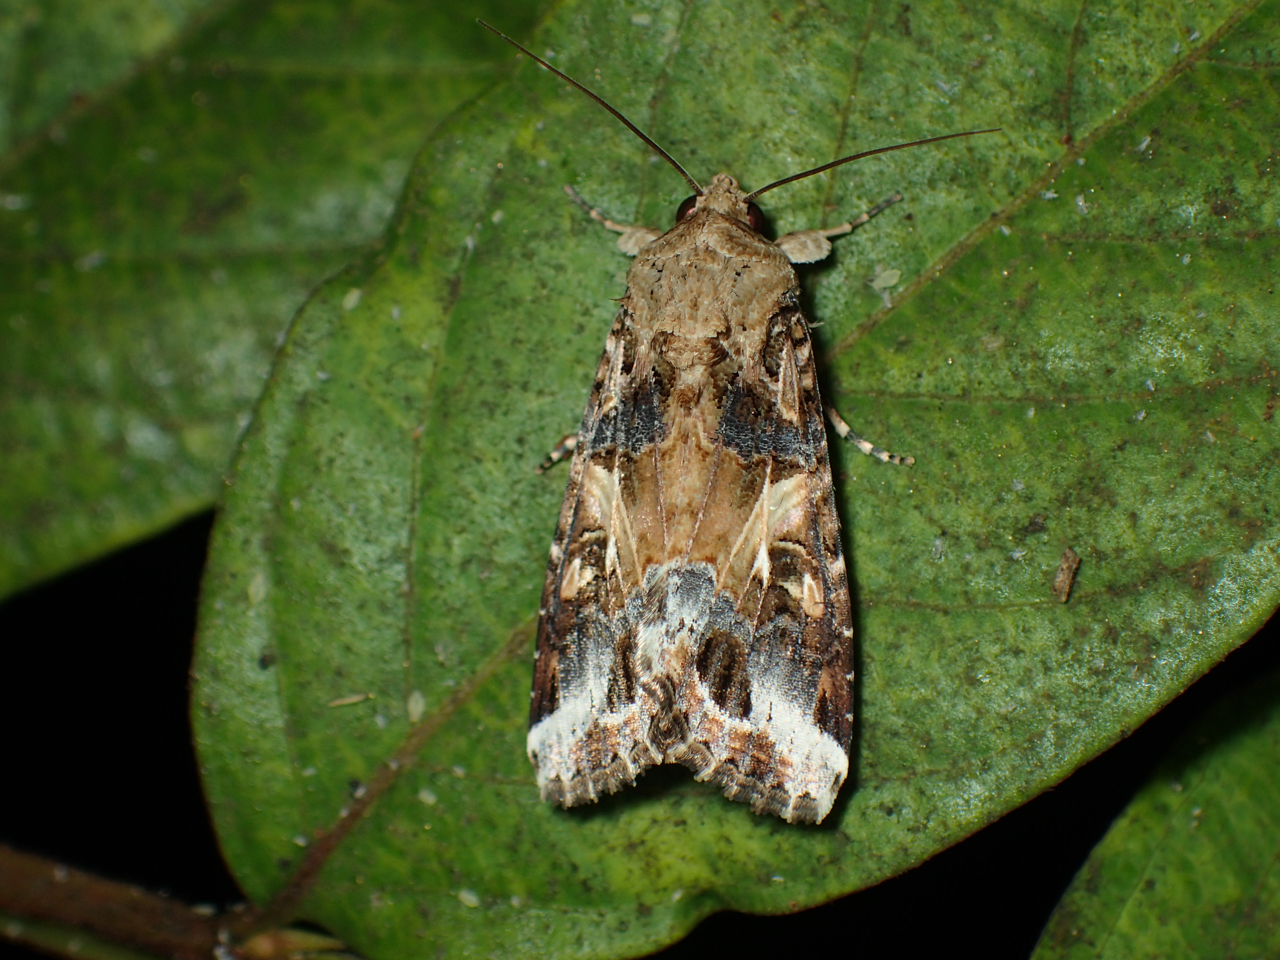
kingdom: Animalia
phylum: Arthropoda
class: Insecta
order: Lepidoptera
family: Noctuidae
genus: Spodoptera
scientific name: Spodoptera ornithogalli
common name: Yellow-striped armyworm
